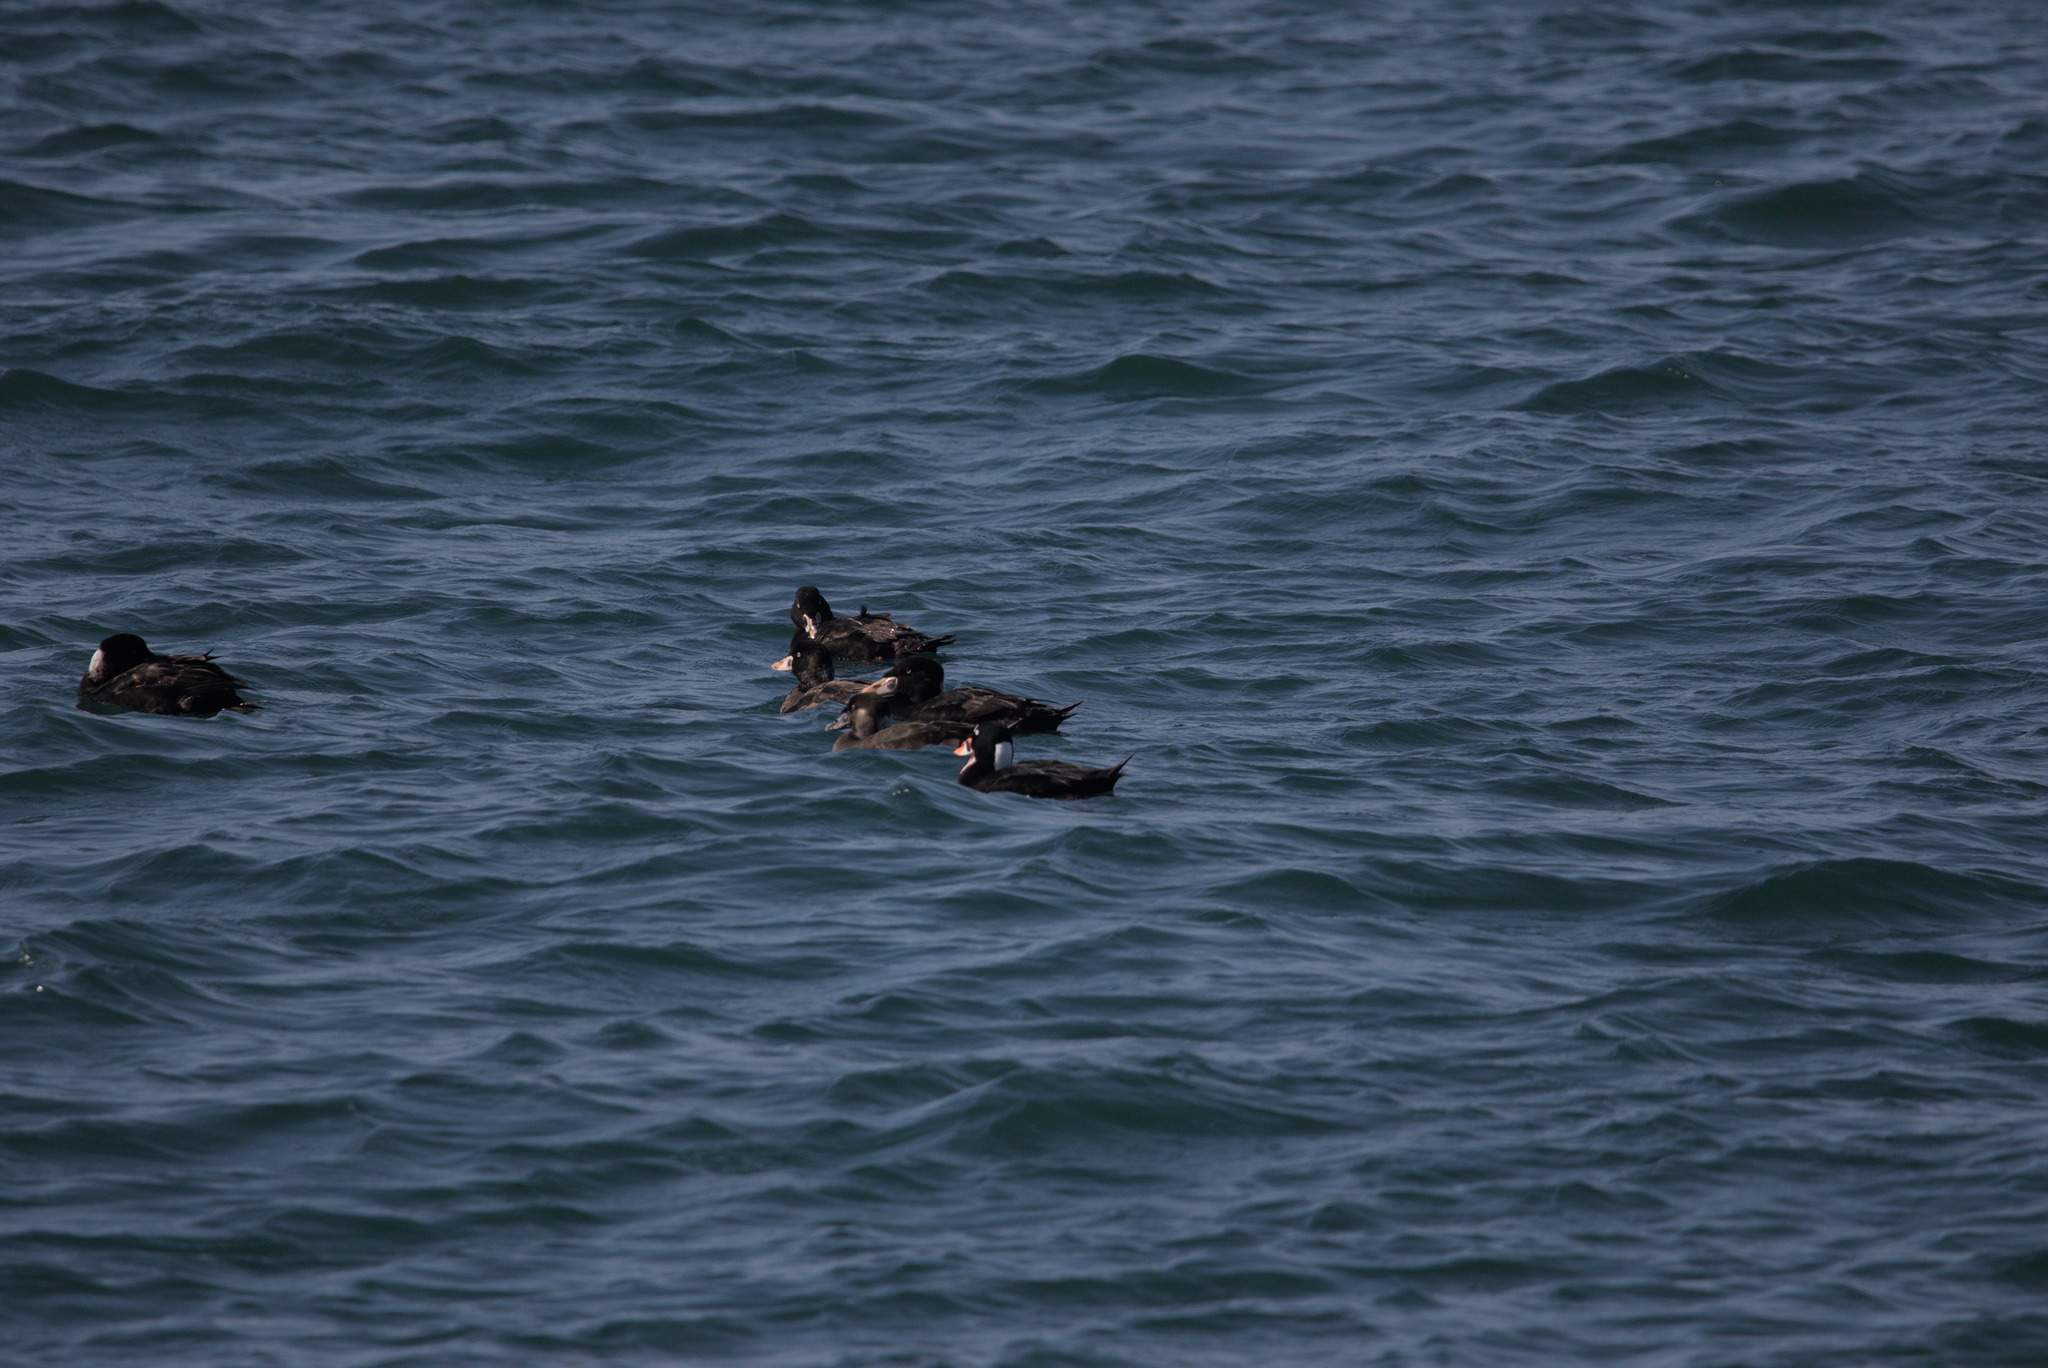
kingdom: Animalia
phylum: Chordata
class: Aves
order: Anseriformes
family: Anatidae
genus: Melanitta
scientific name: Melanitta perspicillata
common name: Surf scoter
